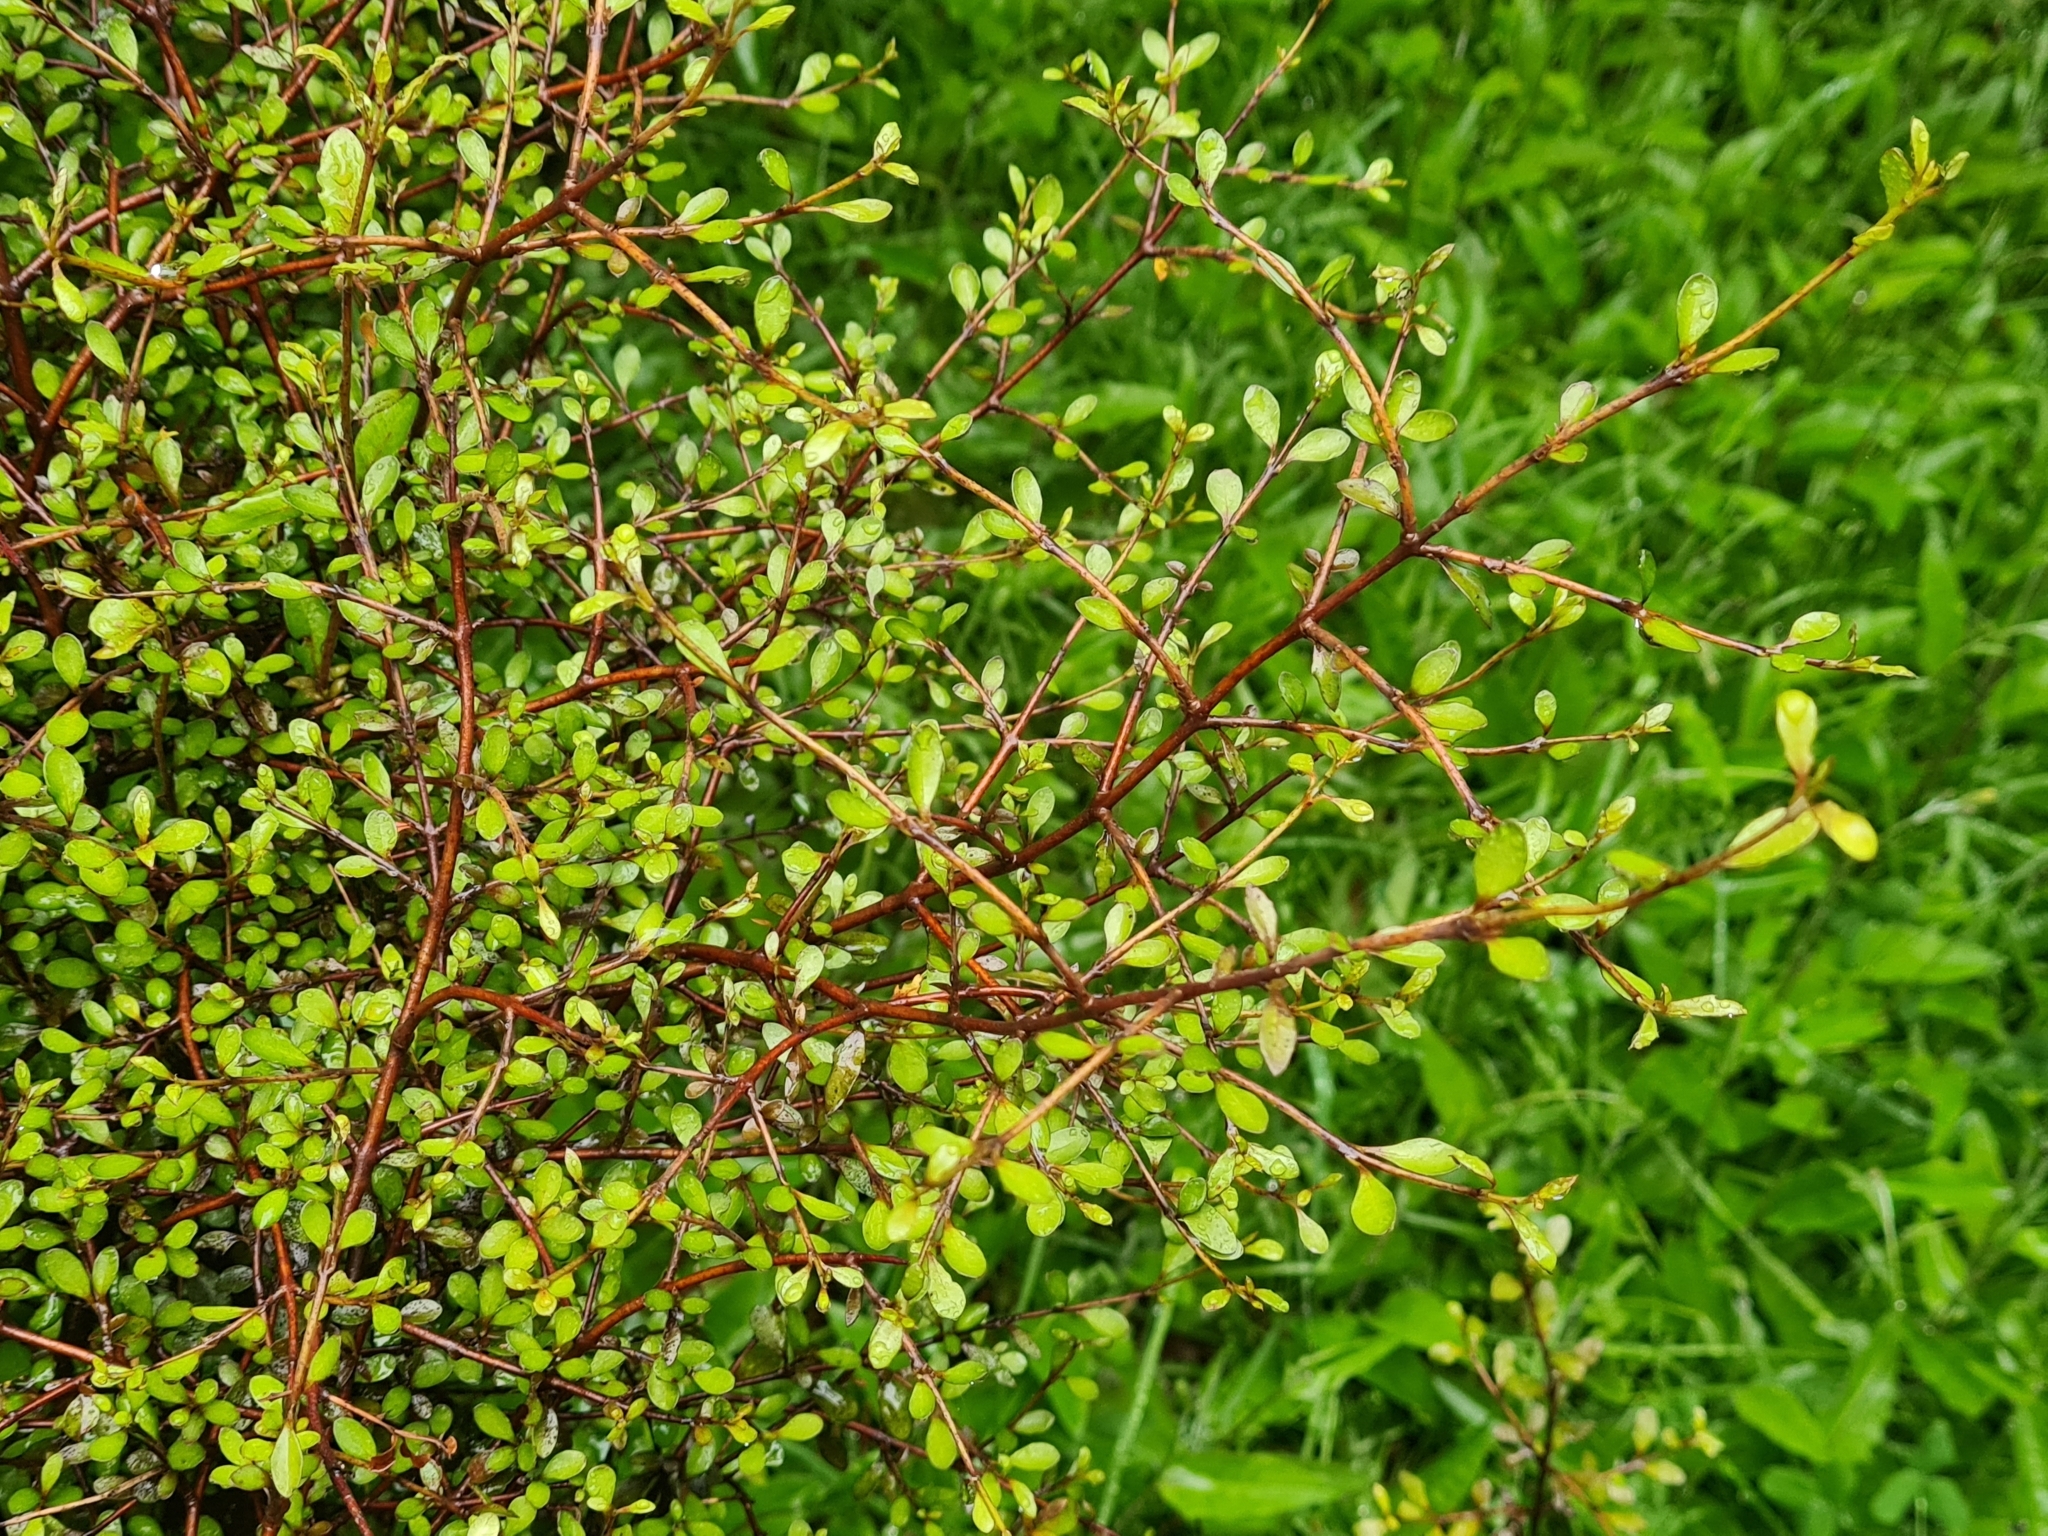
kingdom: Plantae
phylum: Tracheophyta
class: Magnoliopsida
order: Oxalidales
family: Elaeocarpaceae
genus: Aristotelia
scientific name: Aristotelia fruticosa
